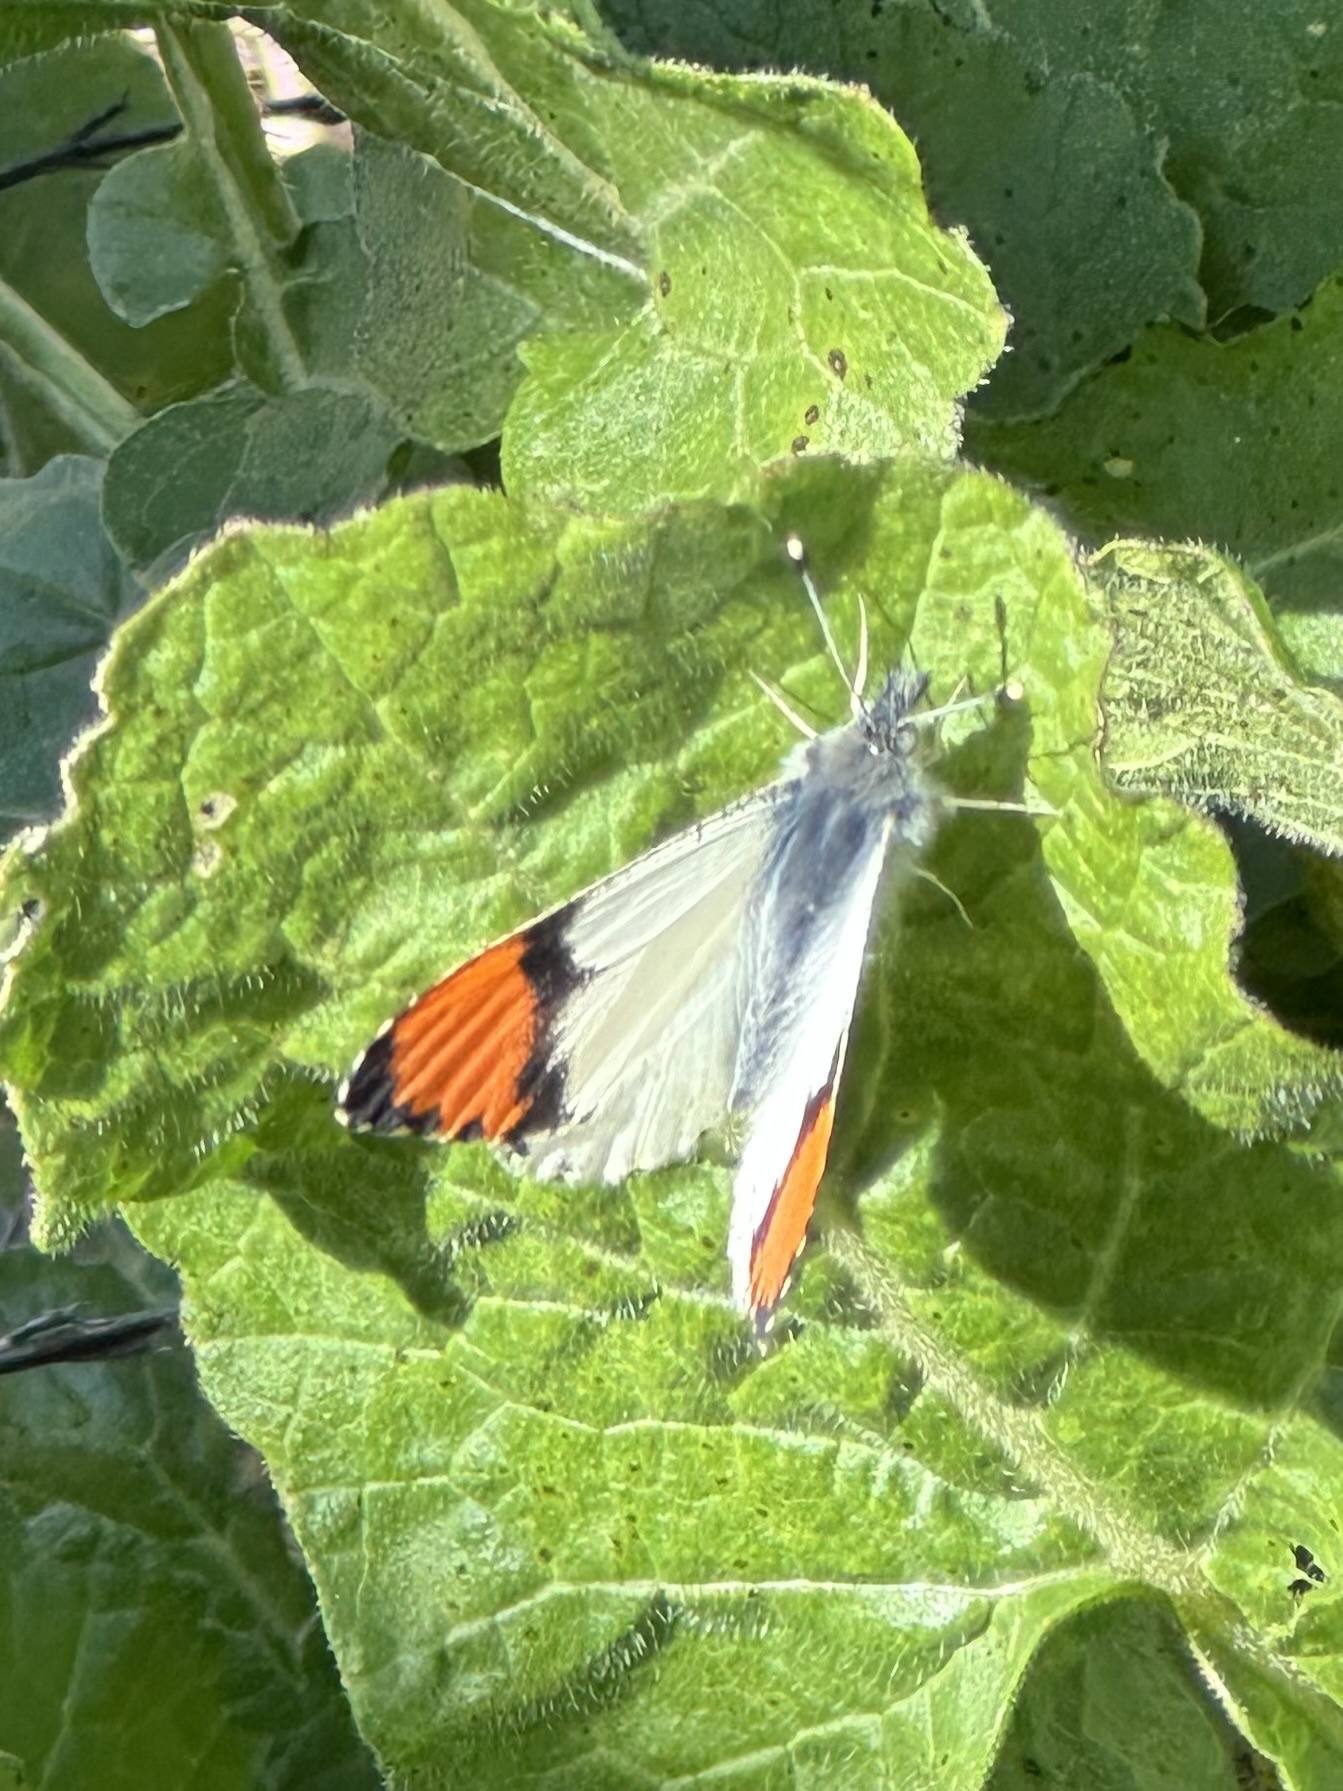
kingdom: Animalia
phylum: Arthropoda
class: Insecta
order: Lepidoptera
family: Pieridae
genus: Anthocharis
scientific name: Anthocharis sara
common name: Sara's orangetip
